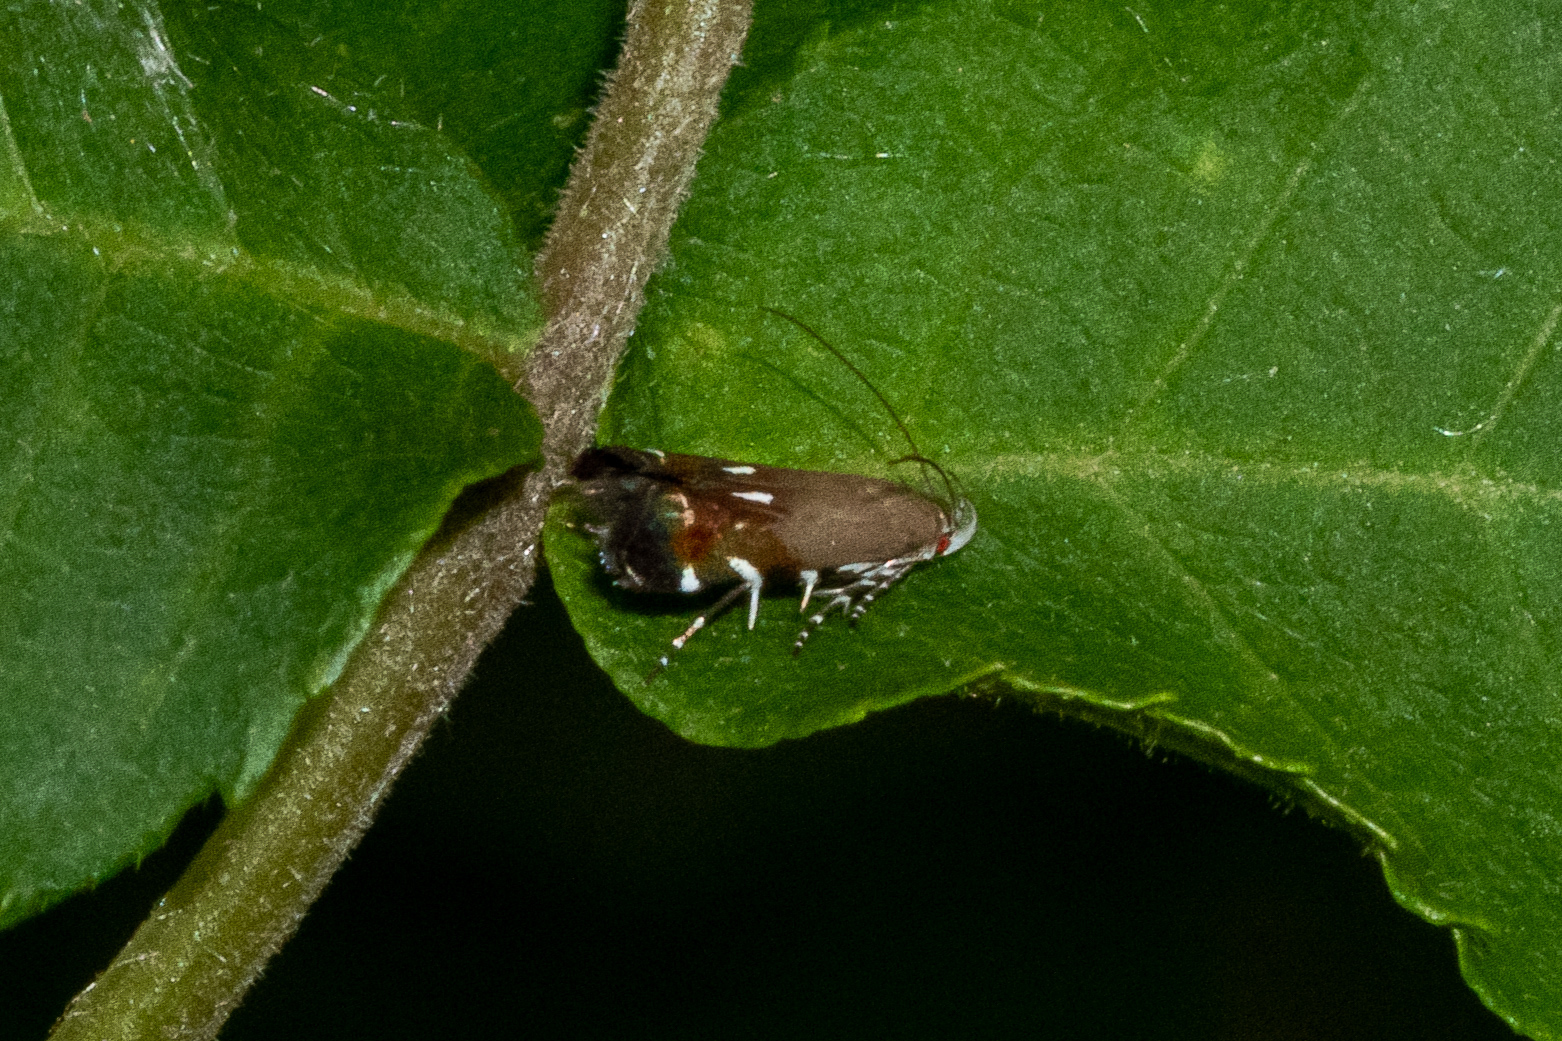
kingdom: Animalia
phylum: Arthropoda
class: Insecta
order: Lepidoptera
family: Gelechiidae
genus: Anacampsis
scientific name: Anacampsis levipedella
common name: Silver-dashed anacampsis
